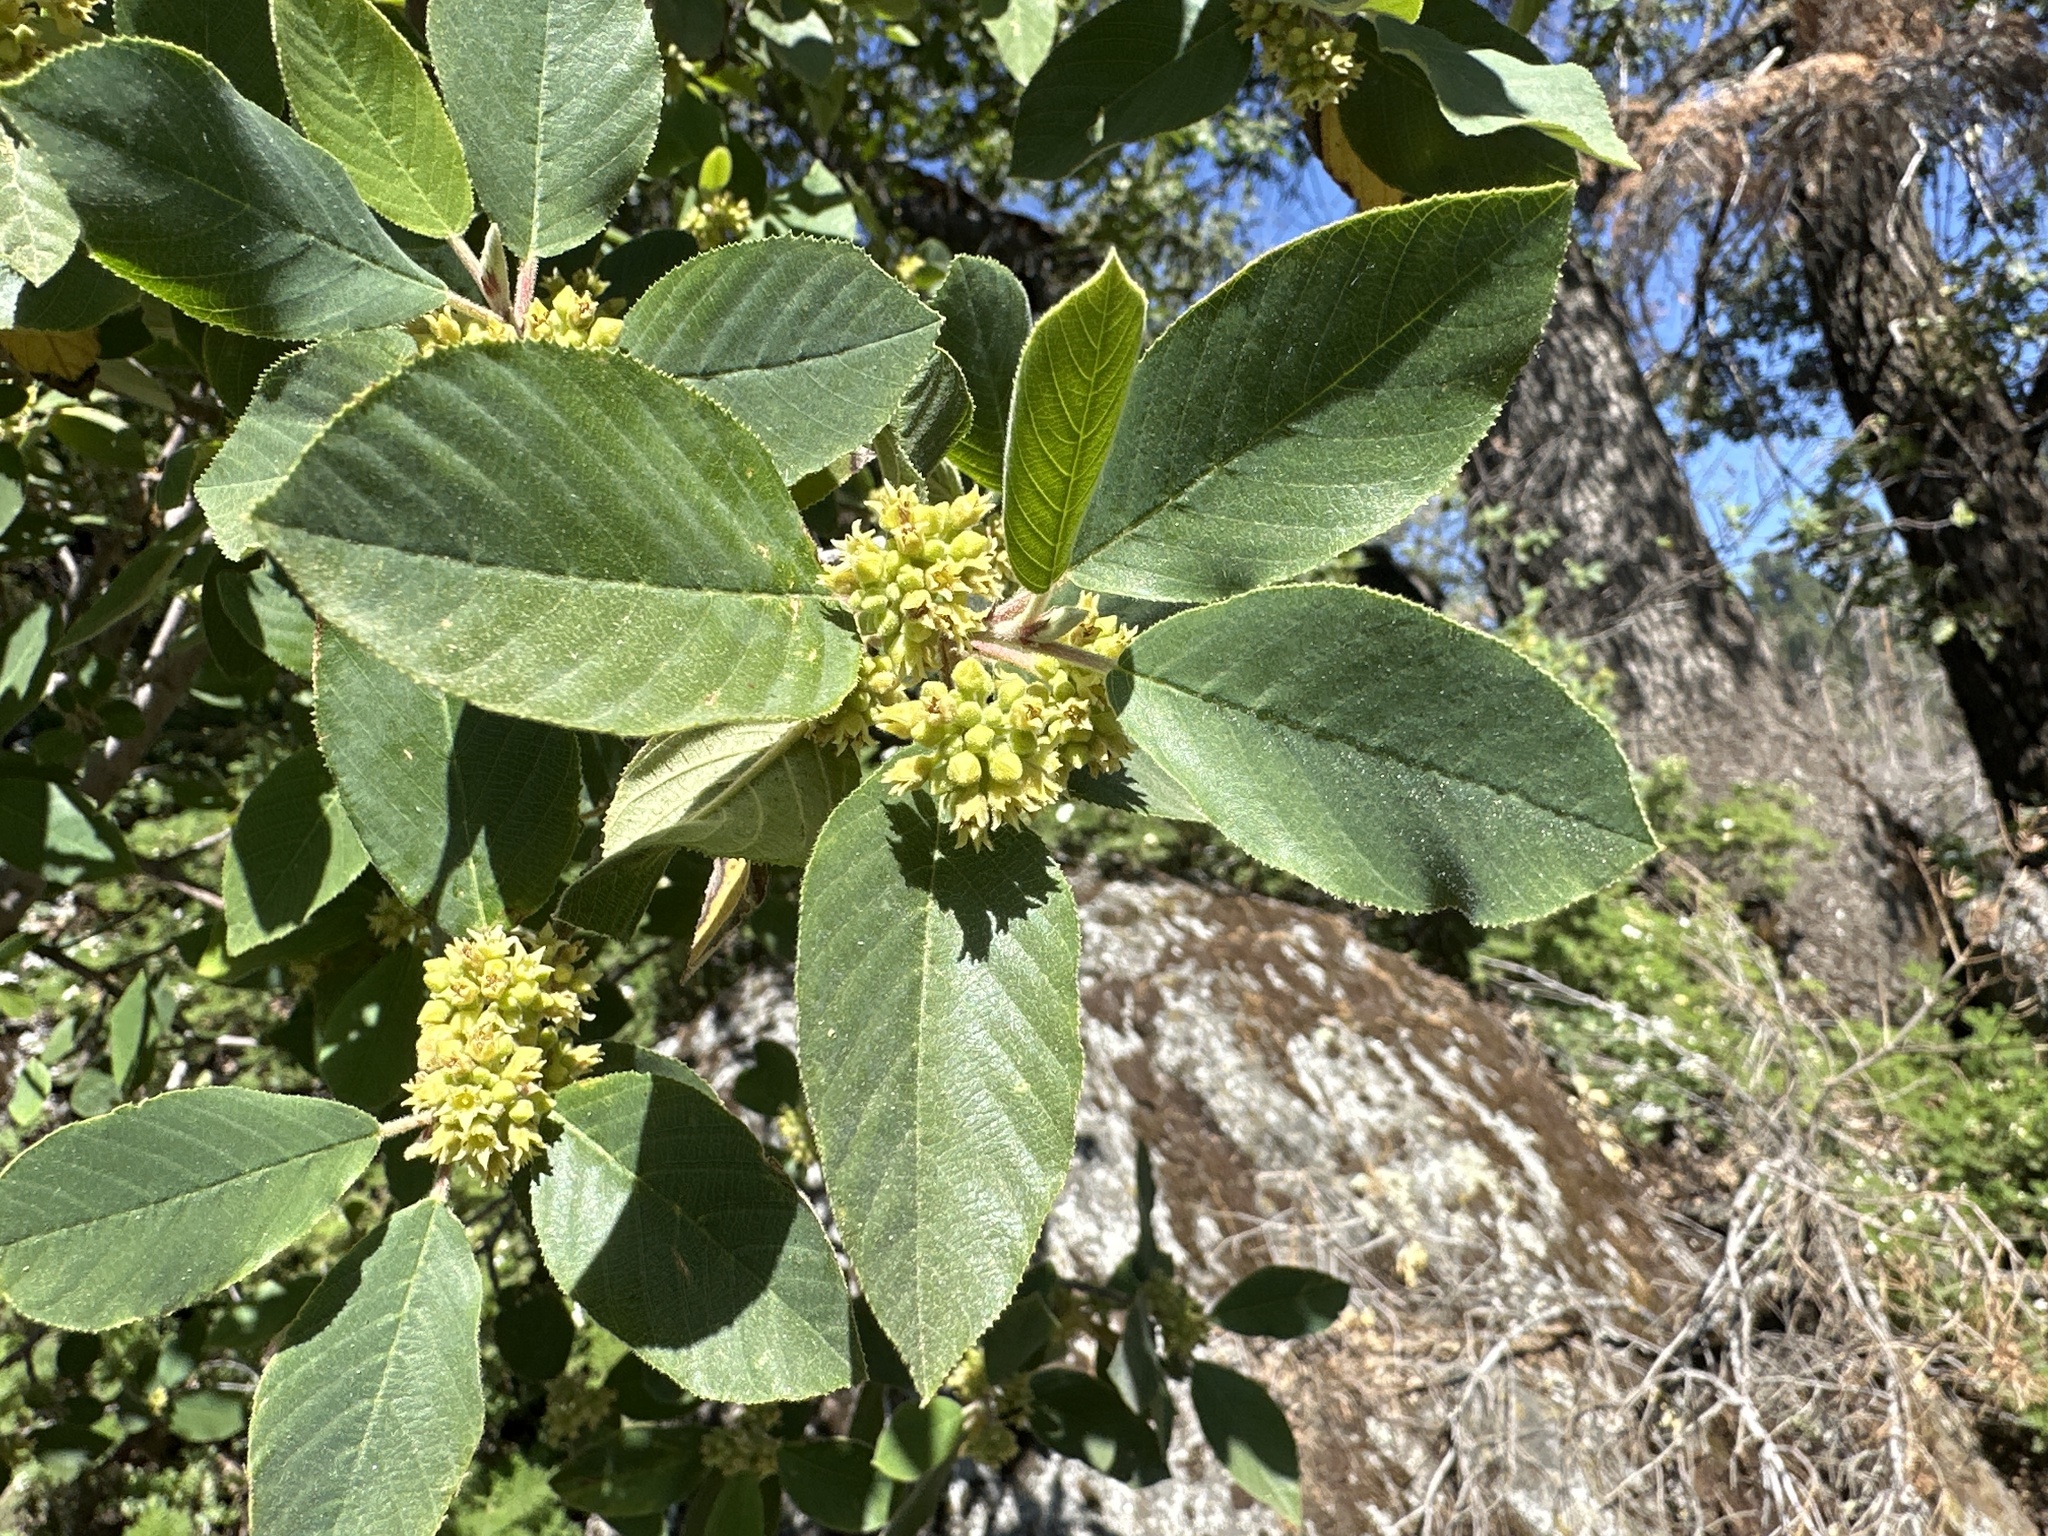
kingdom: Plantae
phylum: Tracheophyta
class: Magnoliopsida
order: Rosales
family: Rhamnaceae
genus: Frangula
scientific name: Frangula californica
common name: California buckthorn
